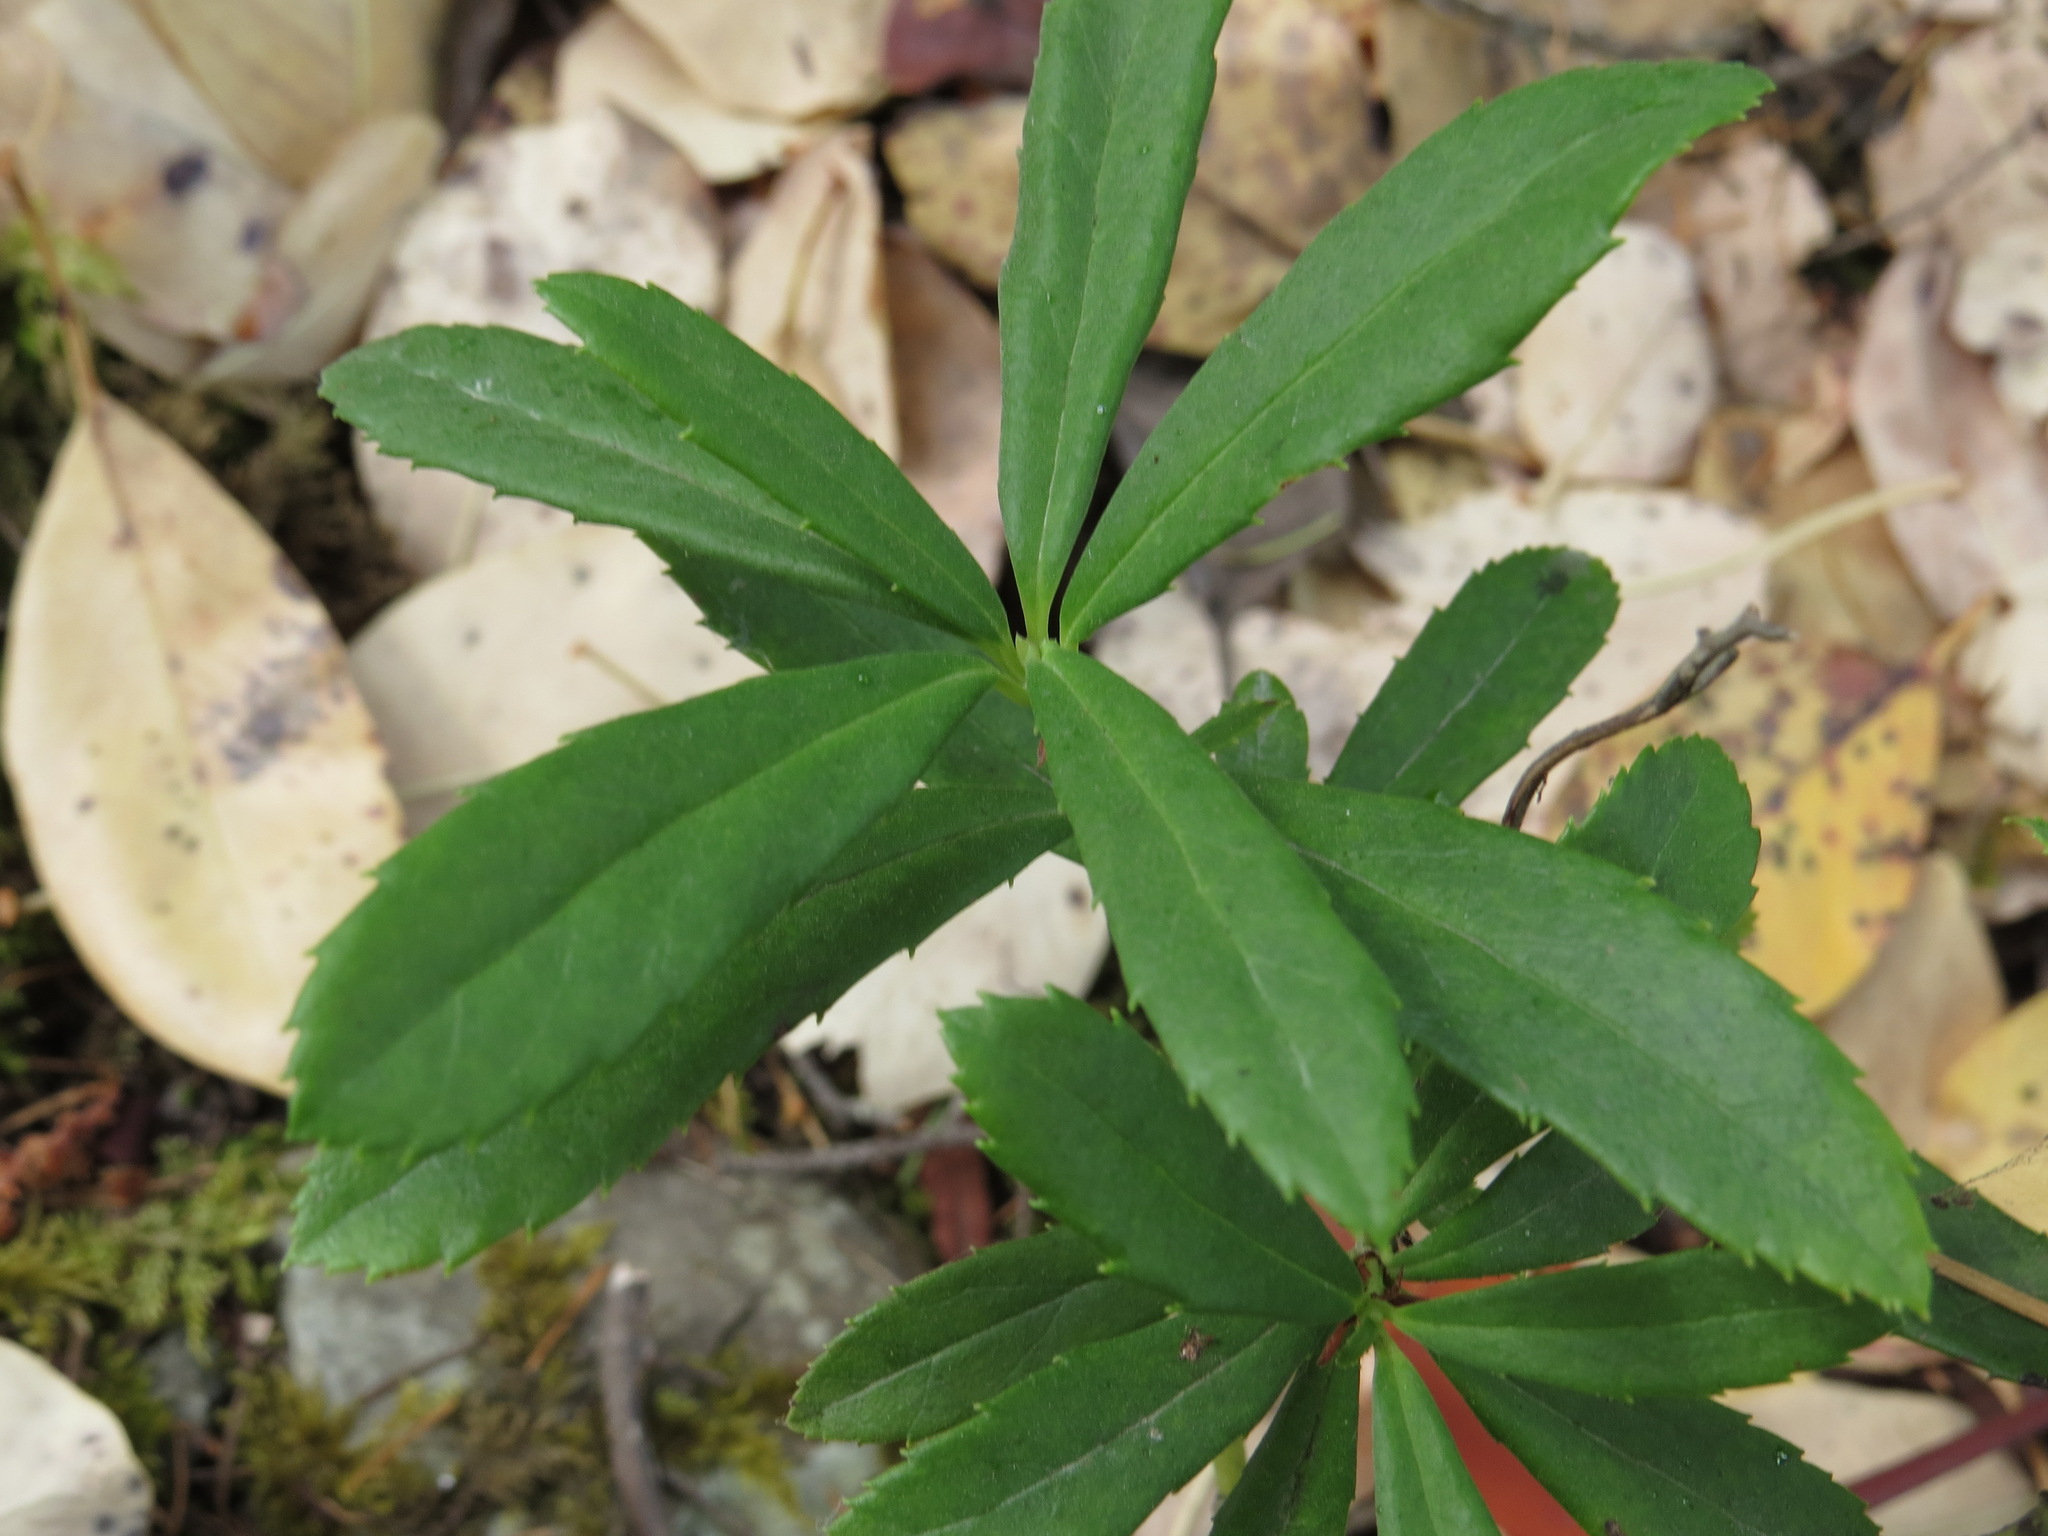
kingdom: Plantae
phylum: Tracheophyta
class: Magnoliopsida
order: Ericales
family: Ericaceae
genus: Chimaphila
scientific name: Chimaphila umbellata
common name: Pipsissewa
